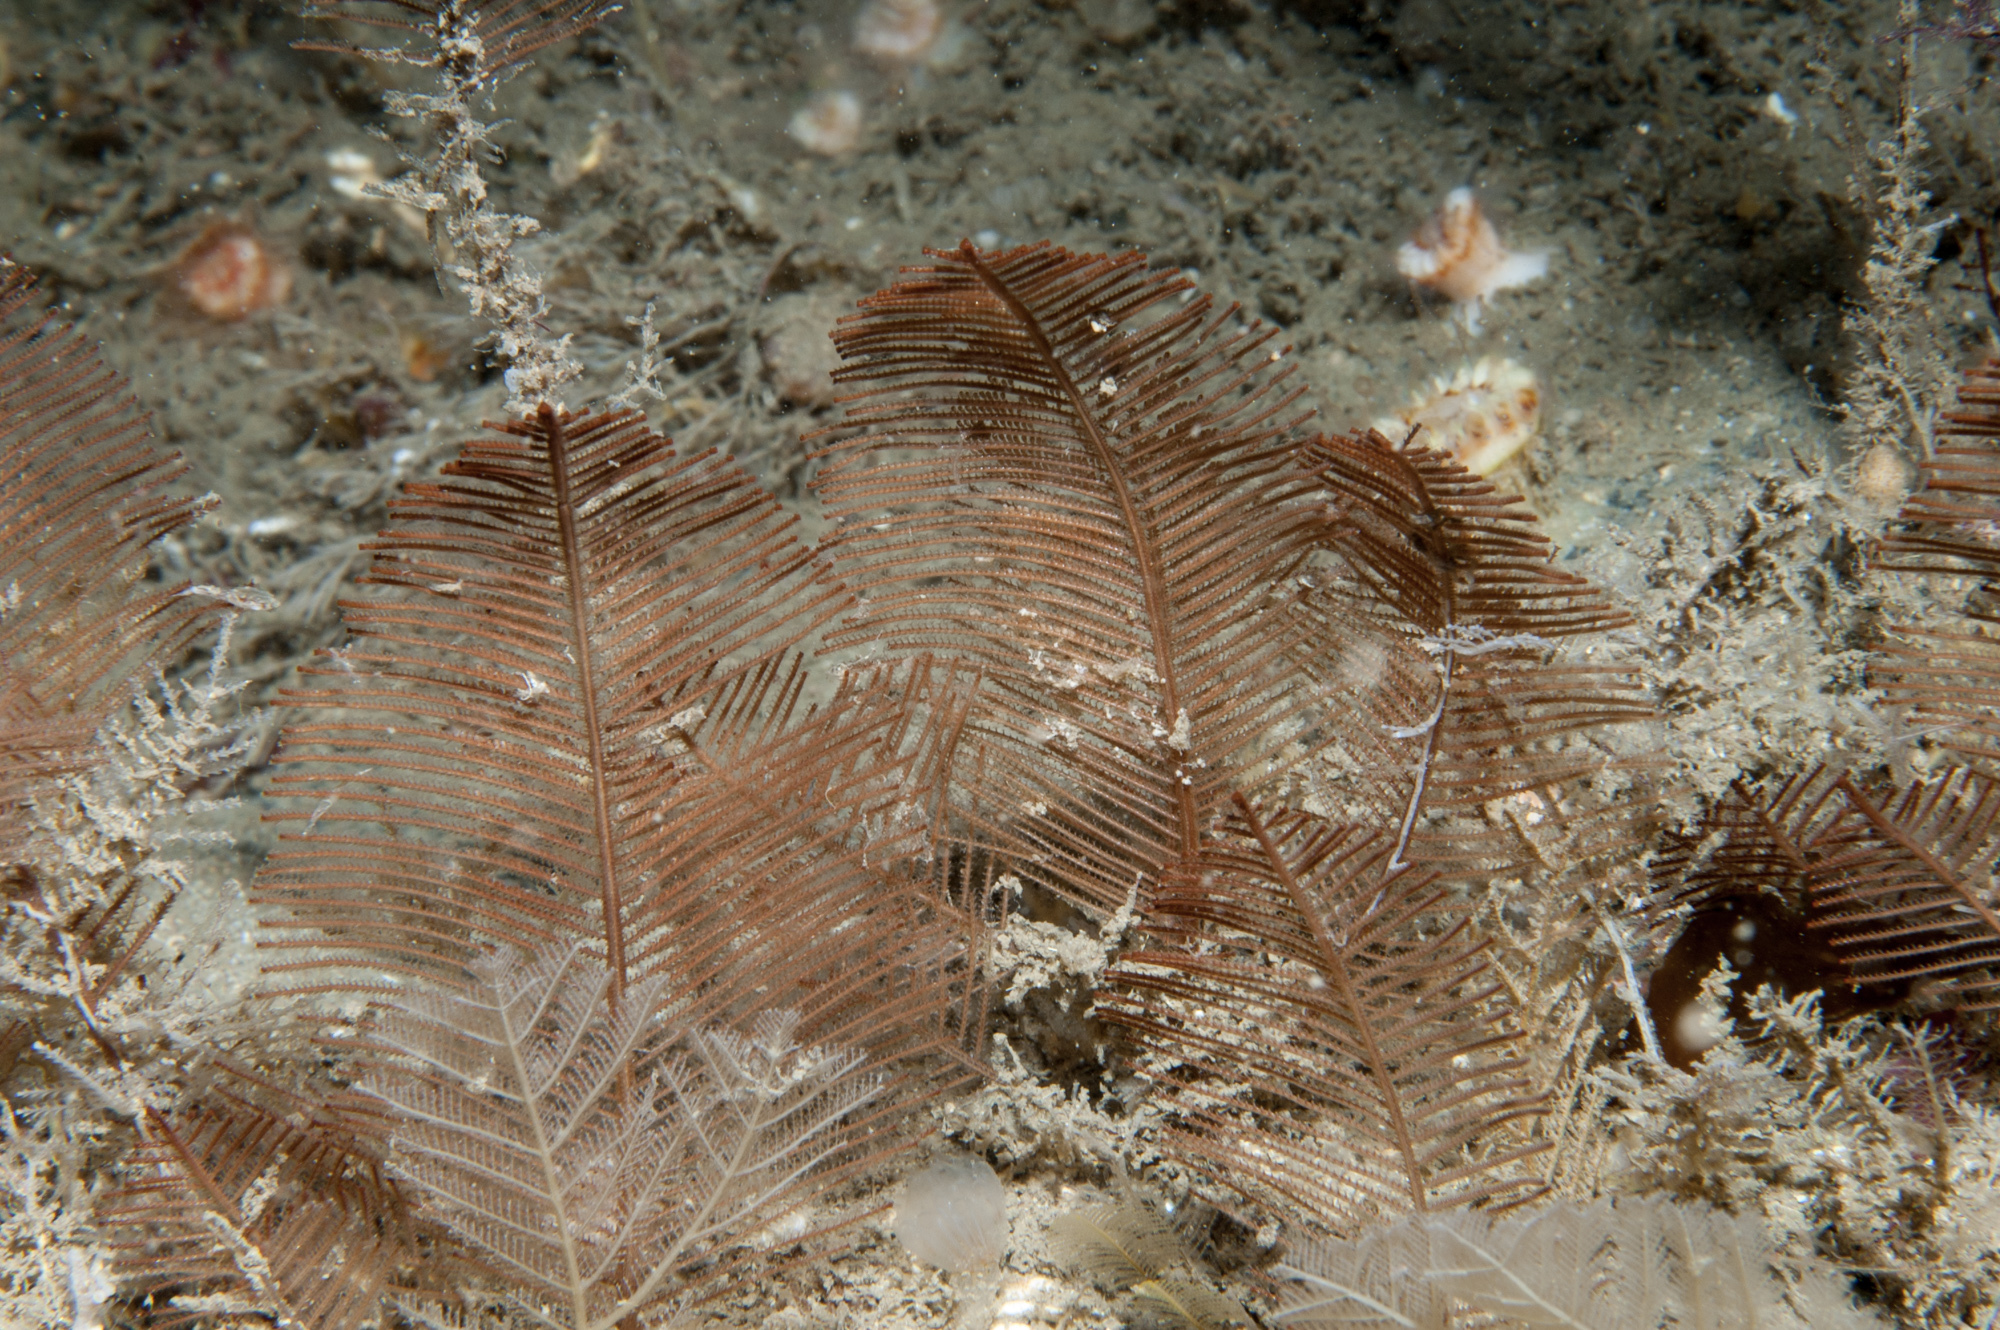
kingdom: Animalia
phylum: Cnidaria
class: Hydrozoa
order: Leptothecata
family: Sertulariidae
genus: Diphasia
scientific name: Diphasia alata
